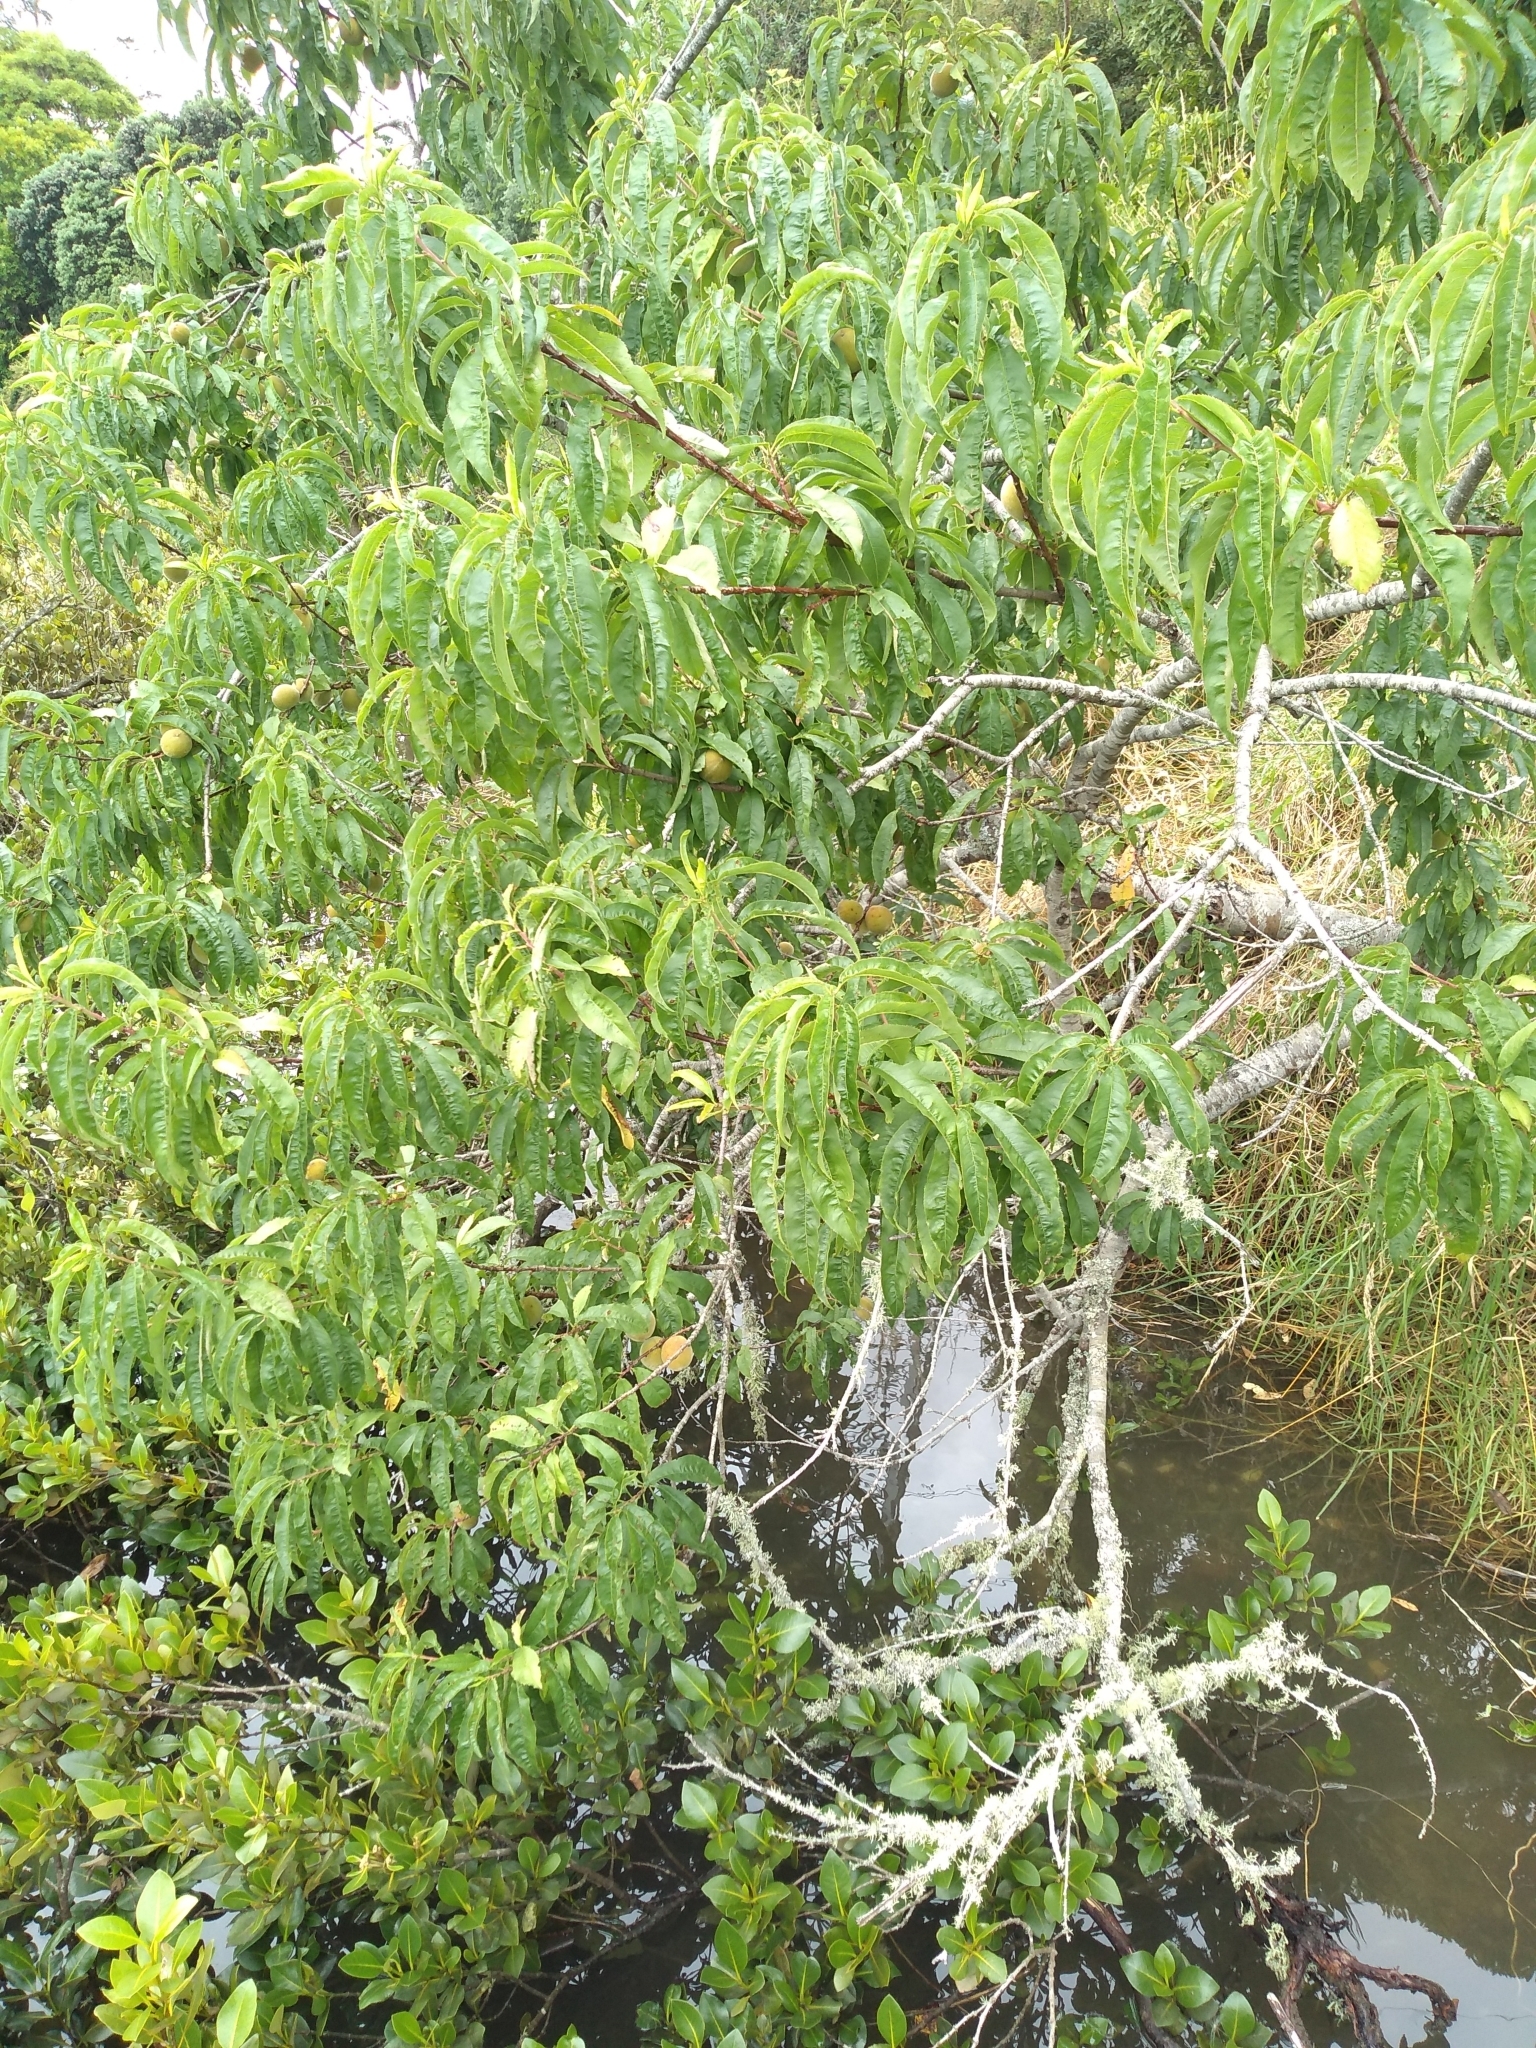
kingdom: Plantae
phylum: Tracheophyta
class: Magnoliopsida
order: Rosales
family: Rosaceae
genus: Prunus
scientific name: Prunus persica
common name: Peach
